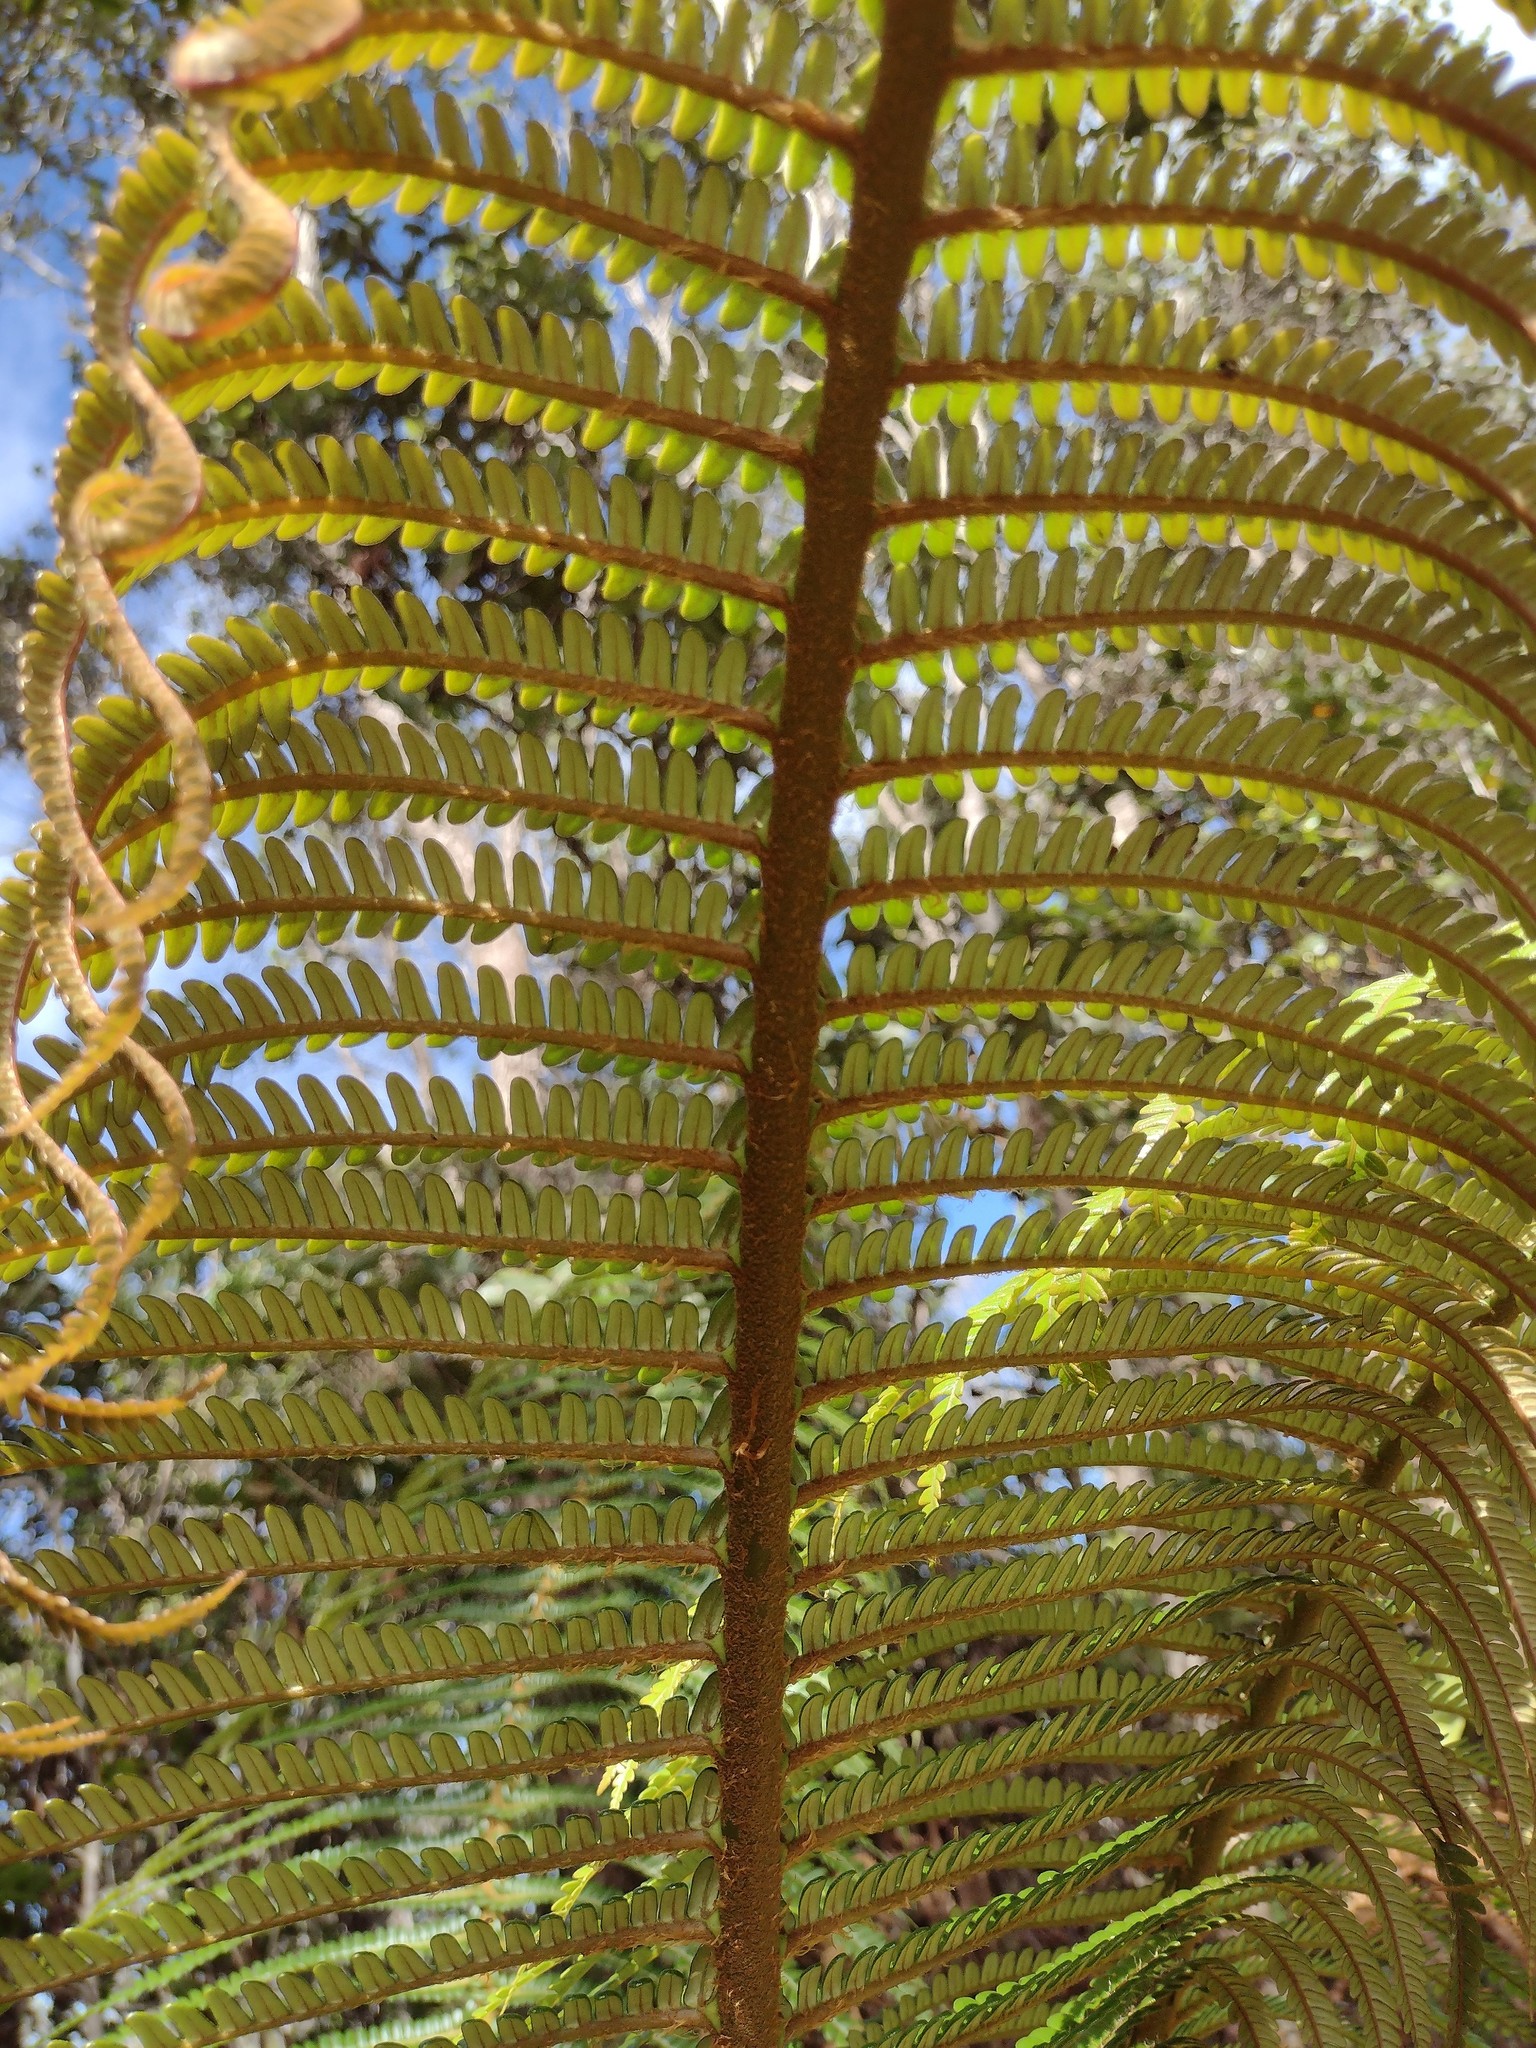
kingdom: Plantae
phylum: Tracheophyta
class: Polypodiopsida
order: Polypodiales
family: Blechnaceae
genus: Sadleria
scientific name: Sadleria cyatheoides
